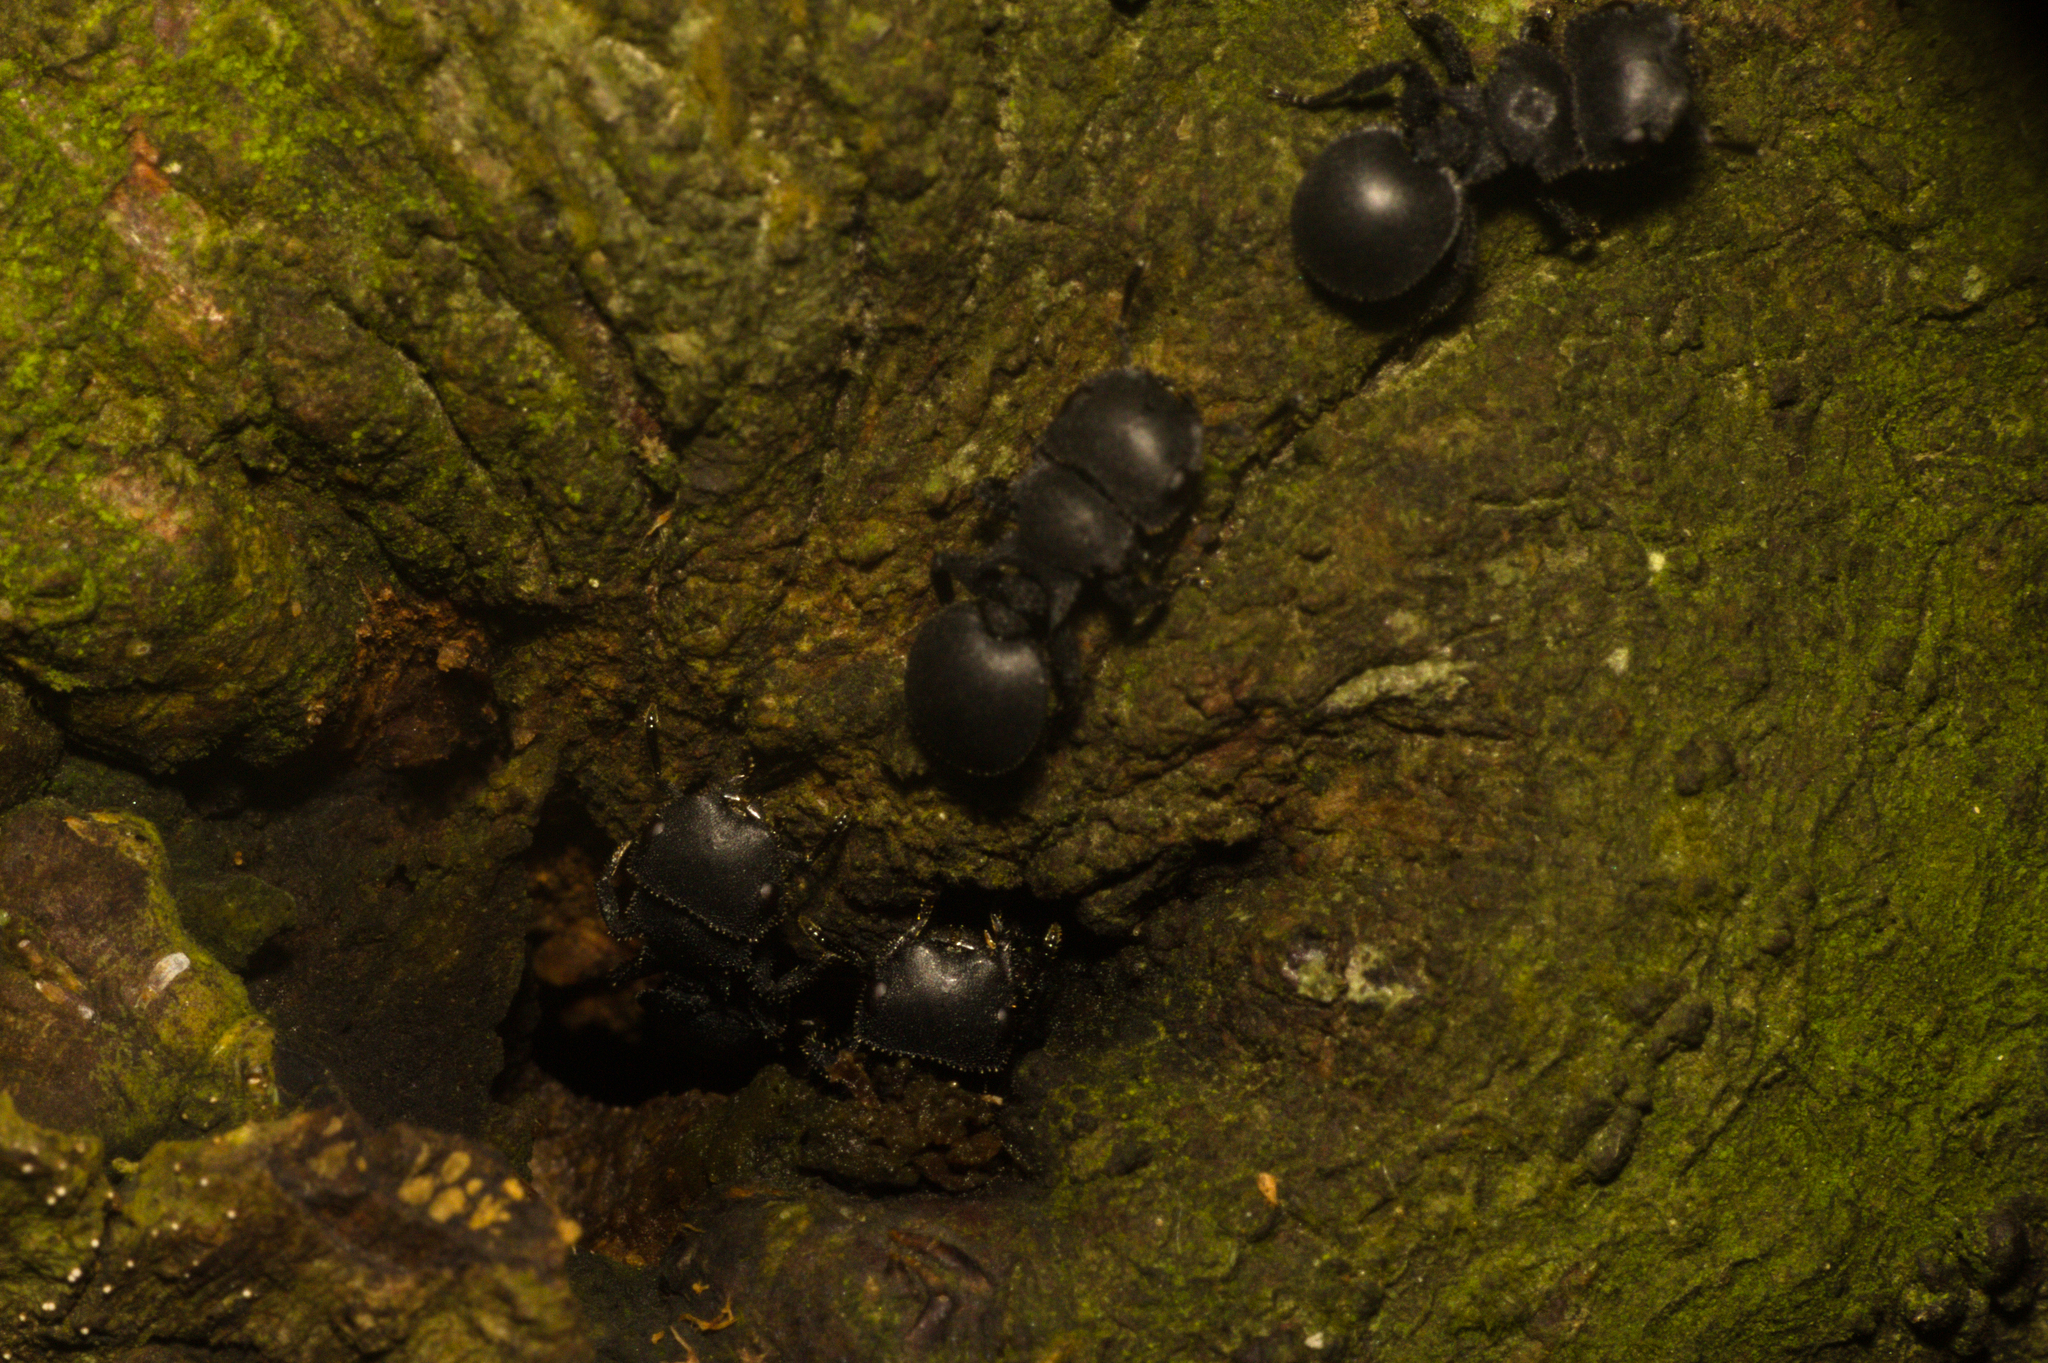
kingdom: Animalia
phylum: Arthropoda
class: Insecta
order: Hymenoptera
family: Formicidae
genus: Cataulacus
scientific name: Cataulacus latissimus
